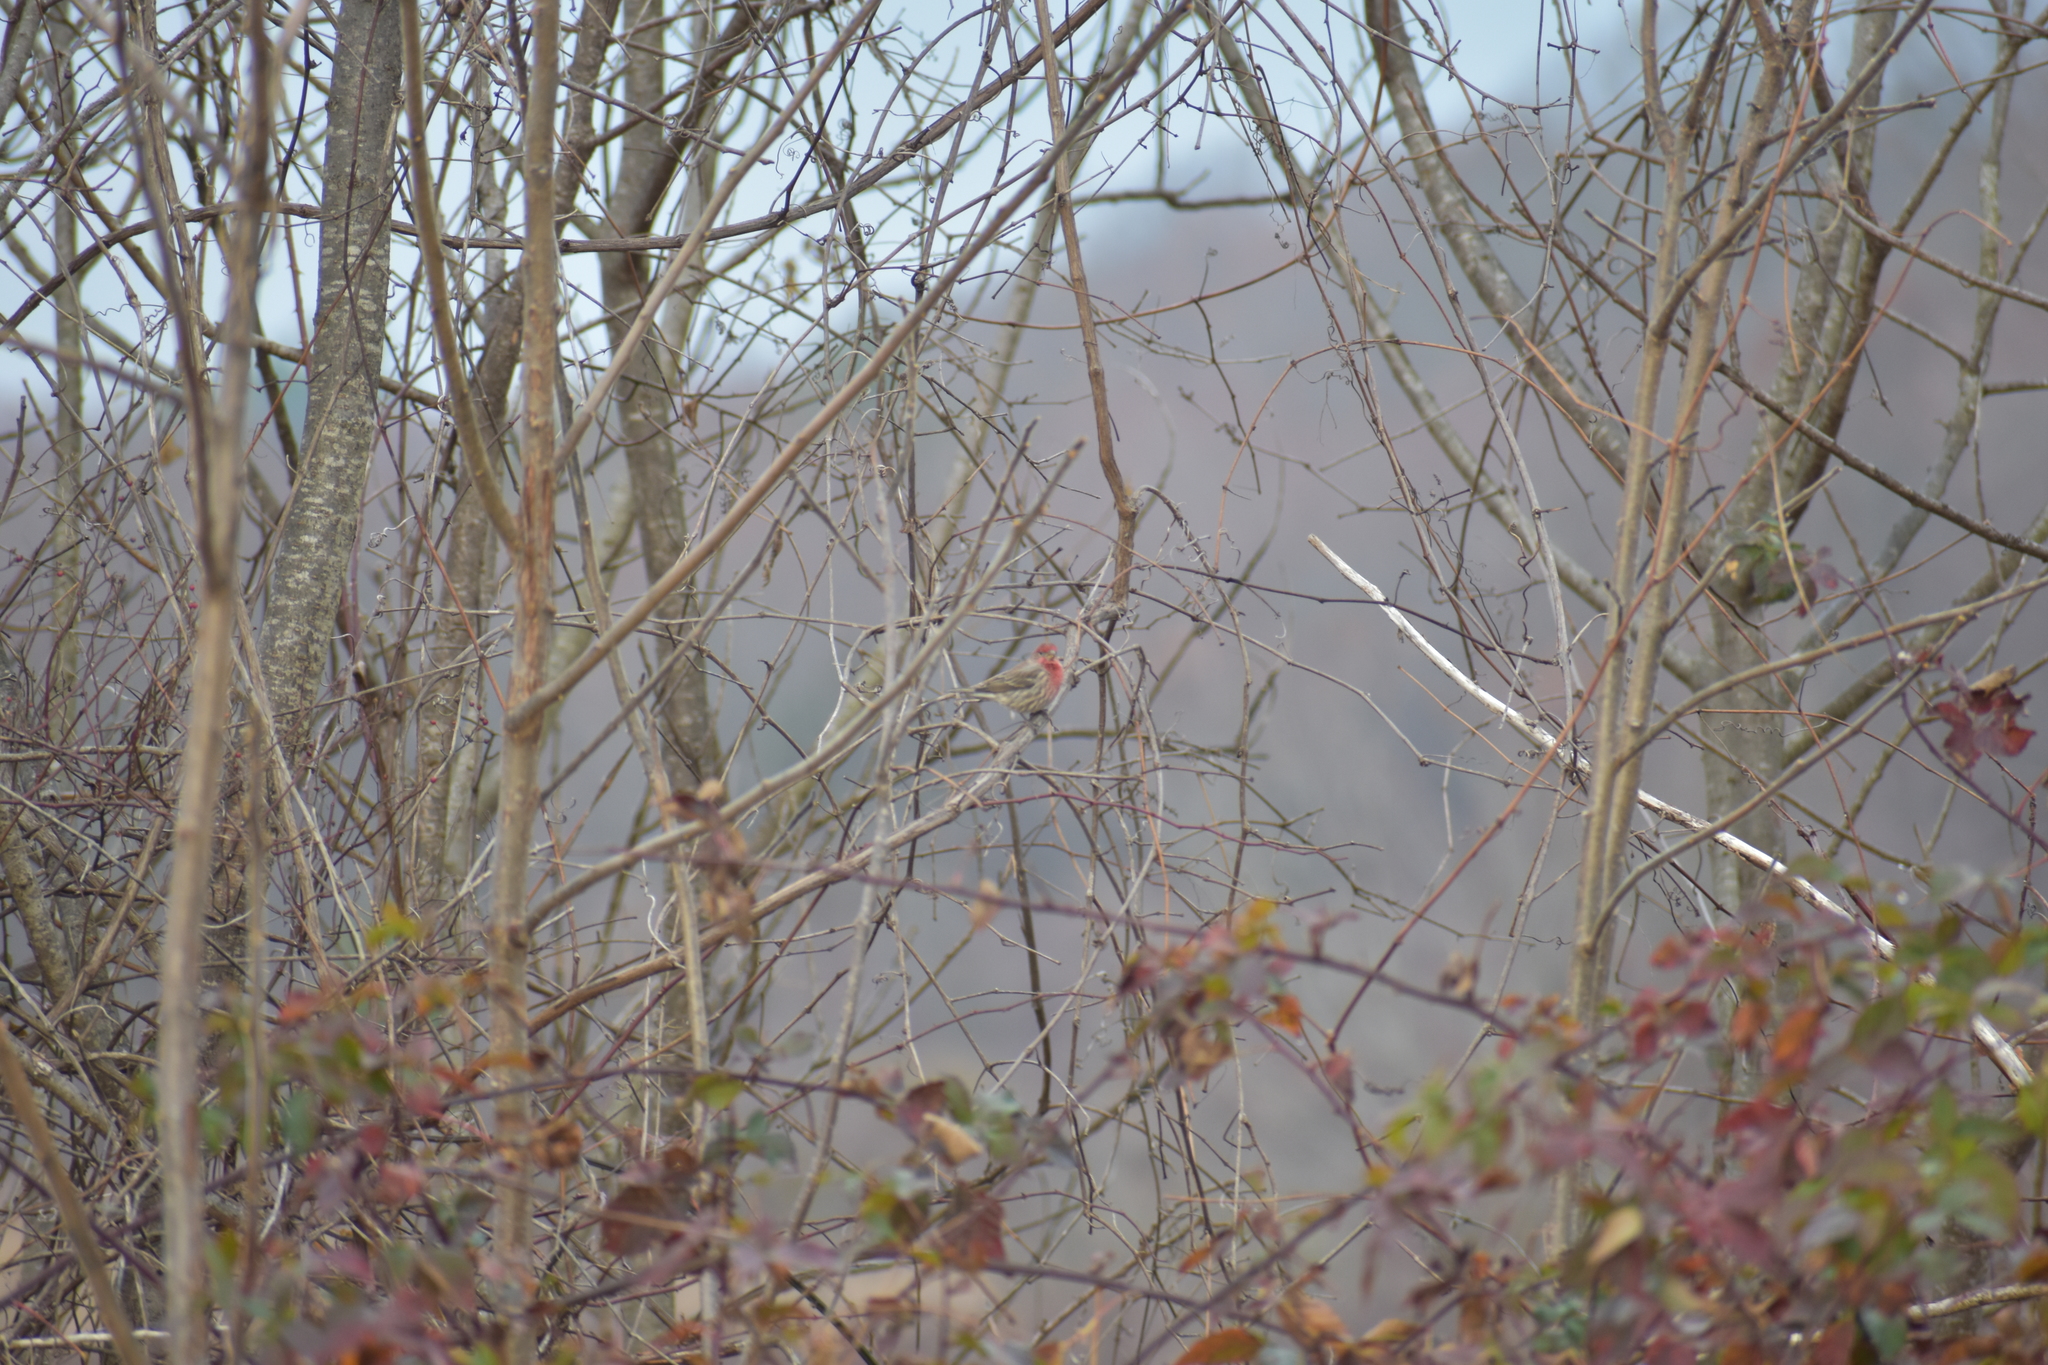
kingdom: Animalia
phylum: Chordata
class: Aves
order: Passeriformes
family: Fringillidae
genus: Haemorhous
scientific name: Haemorhous mexicanus
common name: House finch
